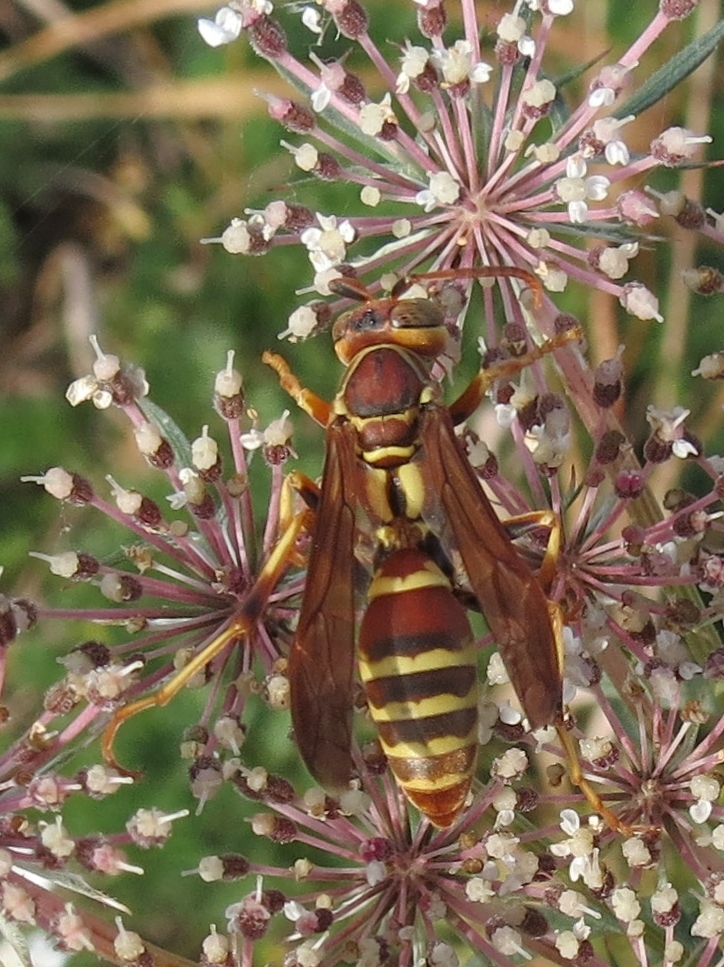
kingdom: Animalia
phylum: Arthropoda
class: Insecta
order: Hymenoptera
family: Eumenidae
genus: Polistes
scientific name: Polistes dorsalis
